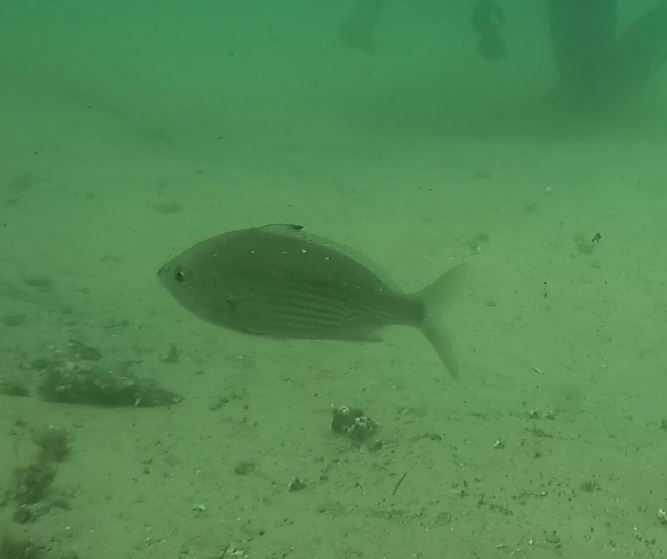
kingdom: Animalia
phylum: Chordata
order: Perciformes
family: Gerreidae
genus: Gerres
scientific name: Gerres subfasciatus
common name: Common silver belly
